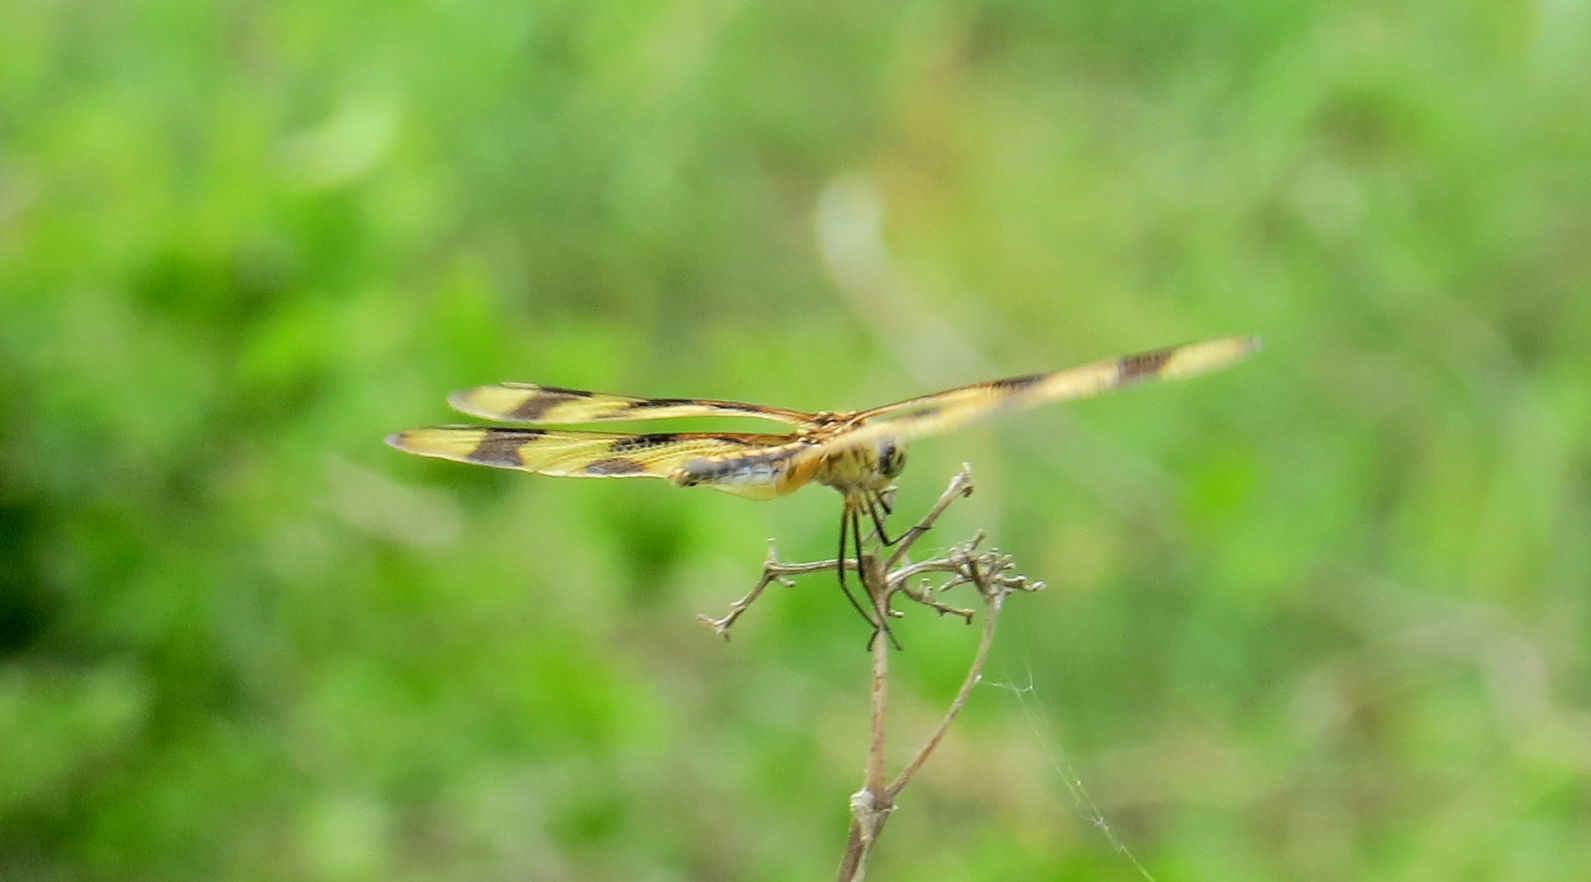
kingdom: Animalia
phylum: Arthropoda
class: Insecta
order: Odonata
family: Libellulidae
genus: Celithemis
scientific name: Celithemis eponina
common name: Halloween pennant
